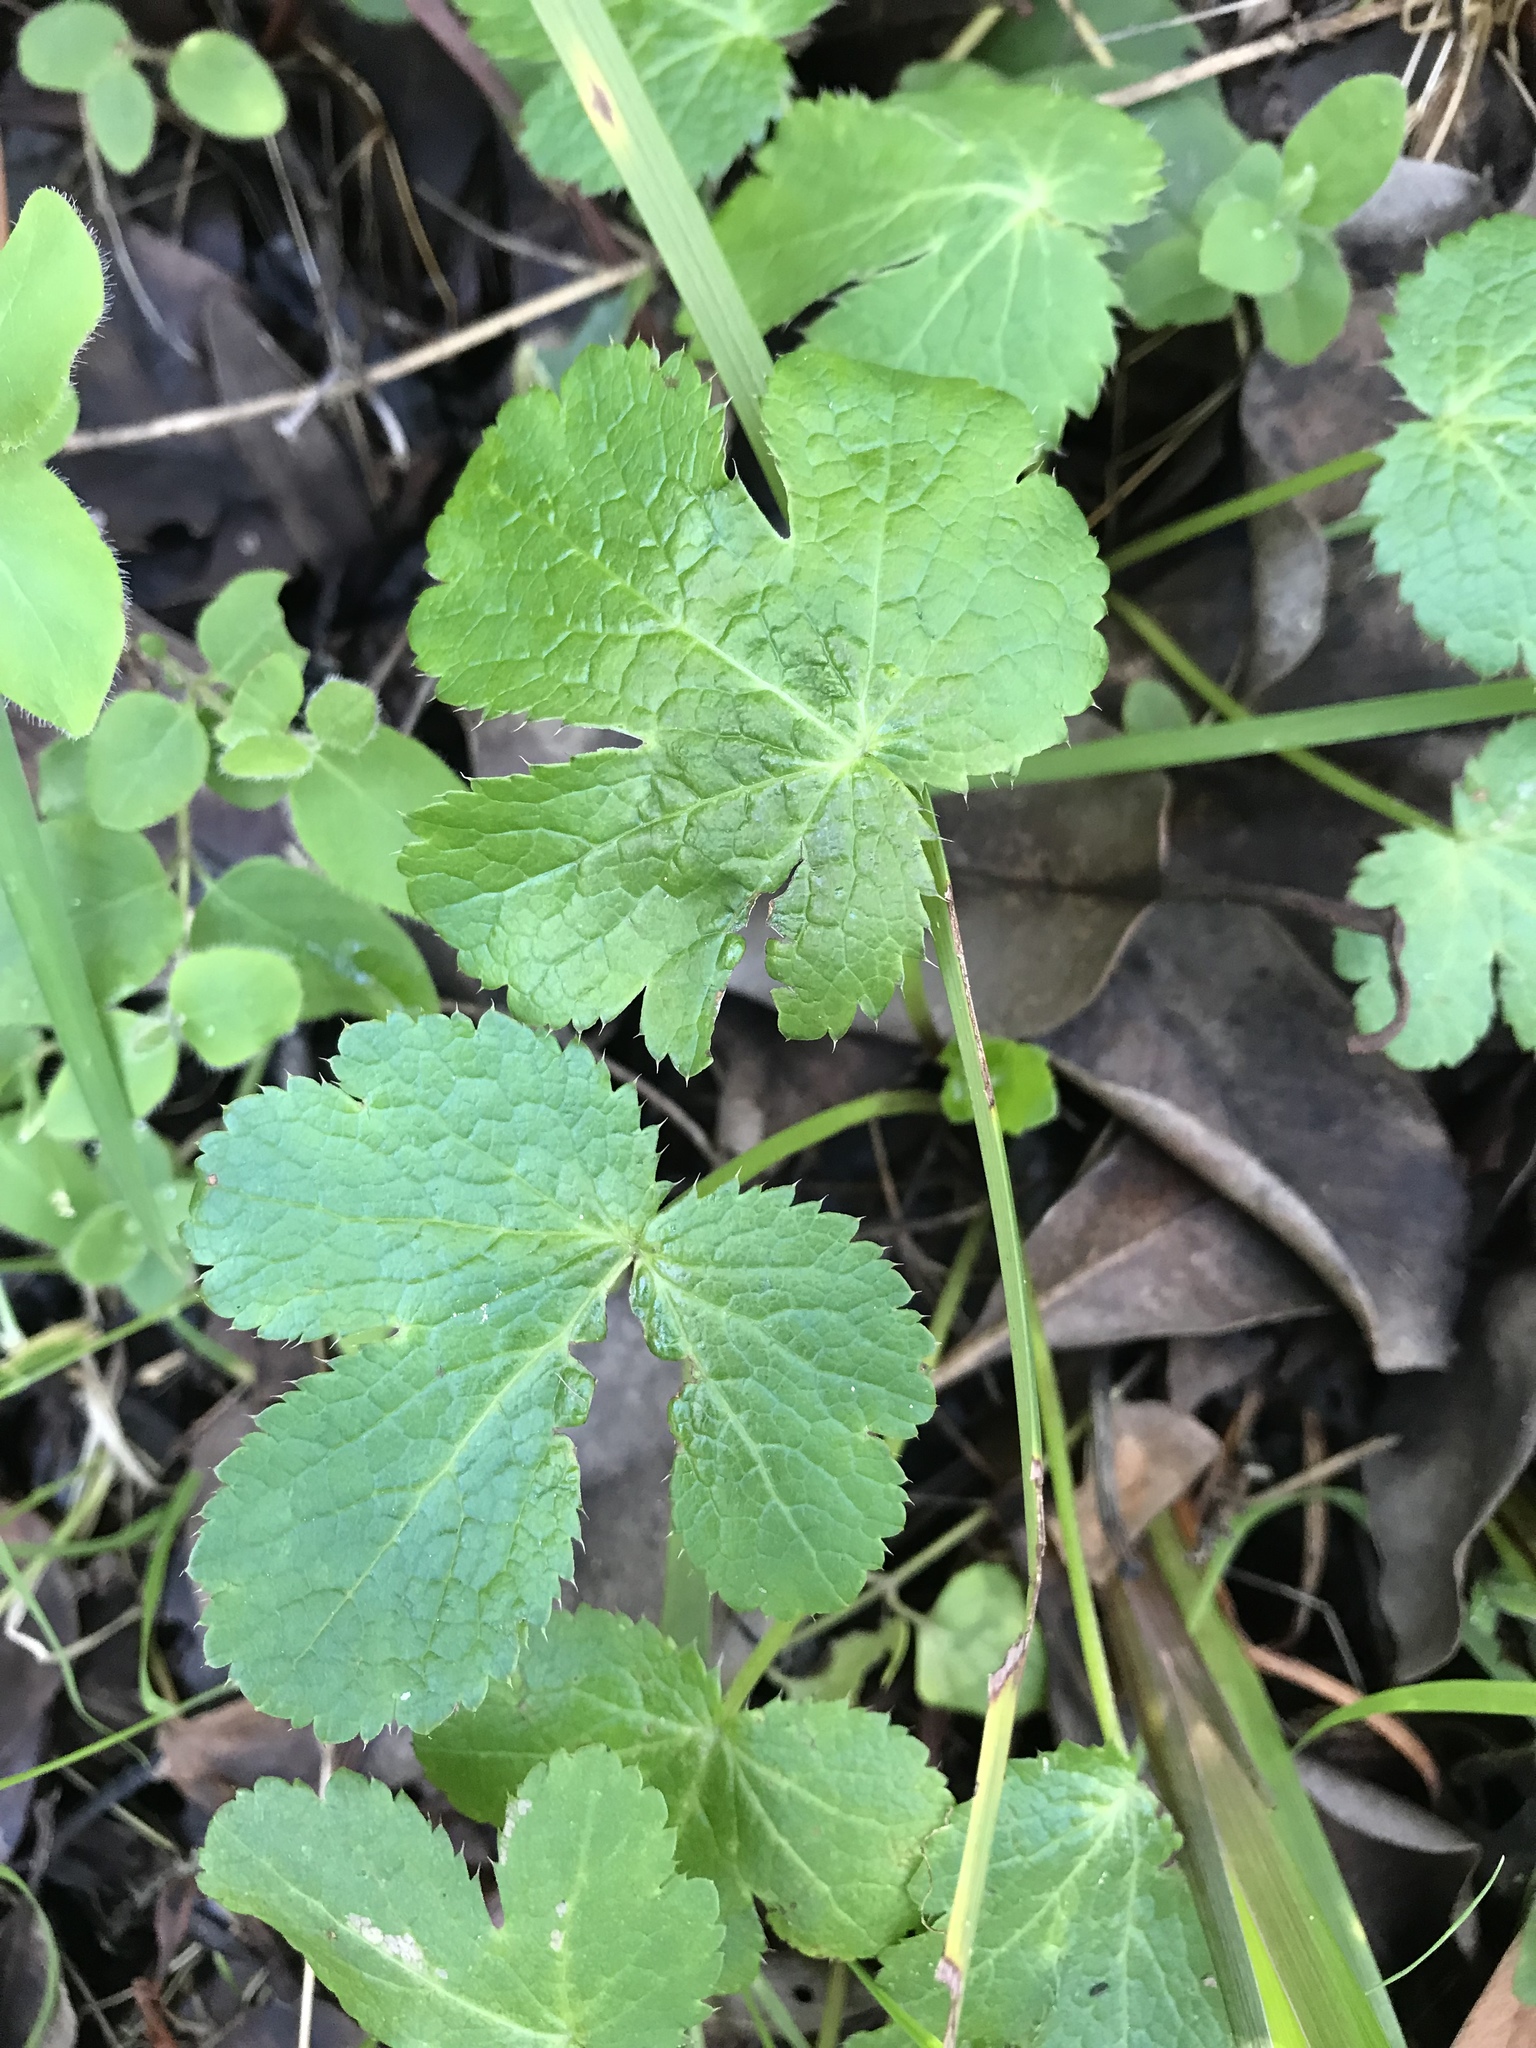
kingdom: Plantae
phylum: Tracheophyta
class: Magnoliopsida
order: Apiales
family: Apiaceae
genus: Sanicula
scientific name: Sanicula crassicaulis
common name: Western snakeroot
